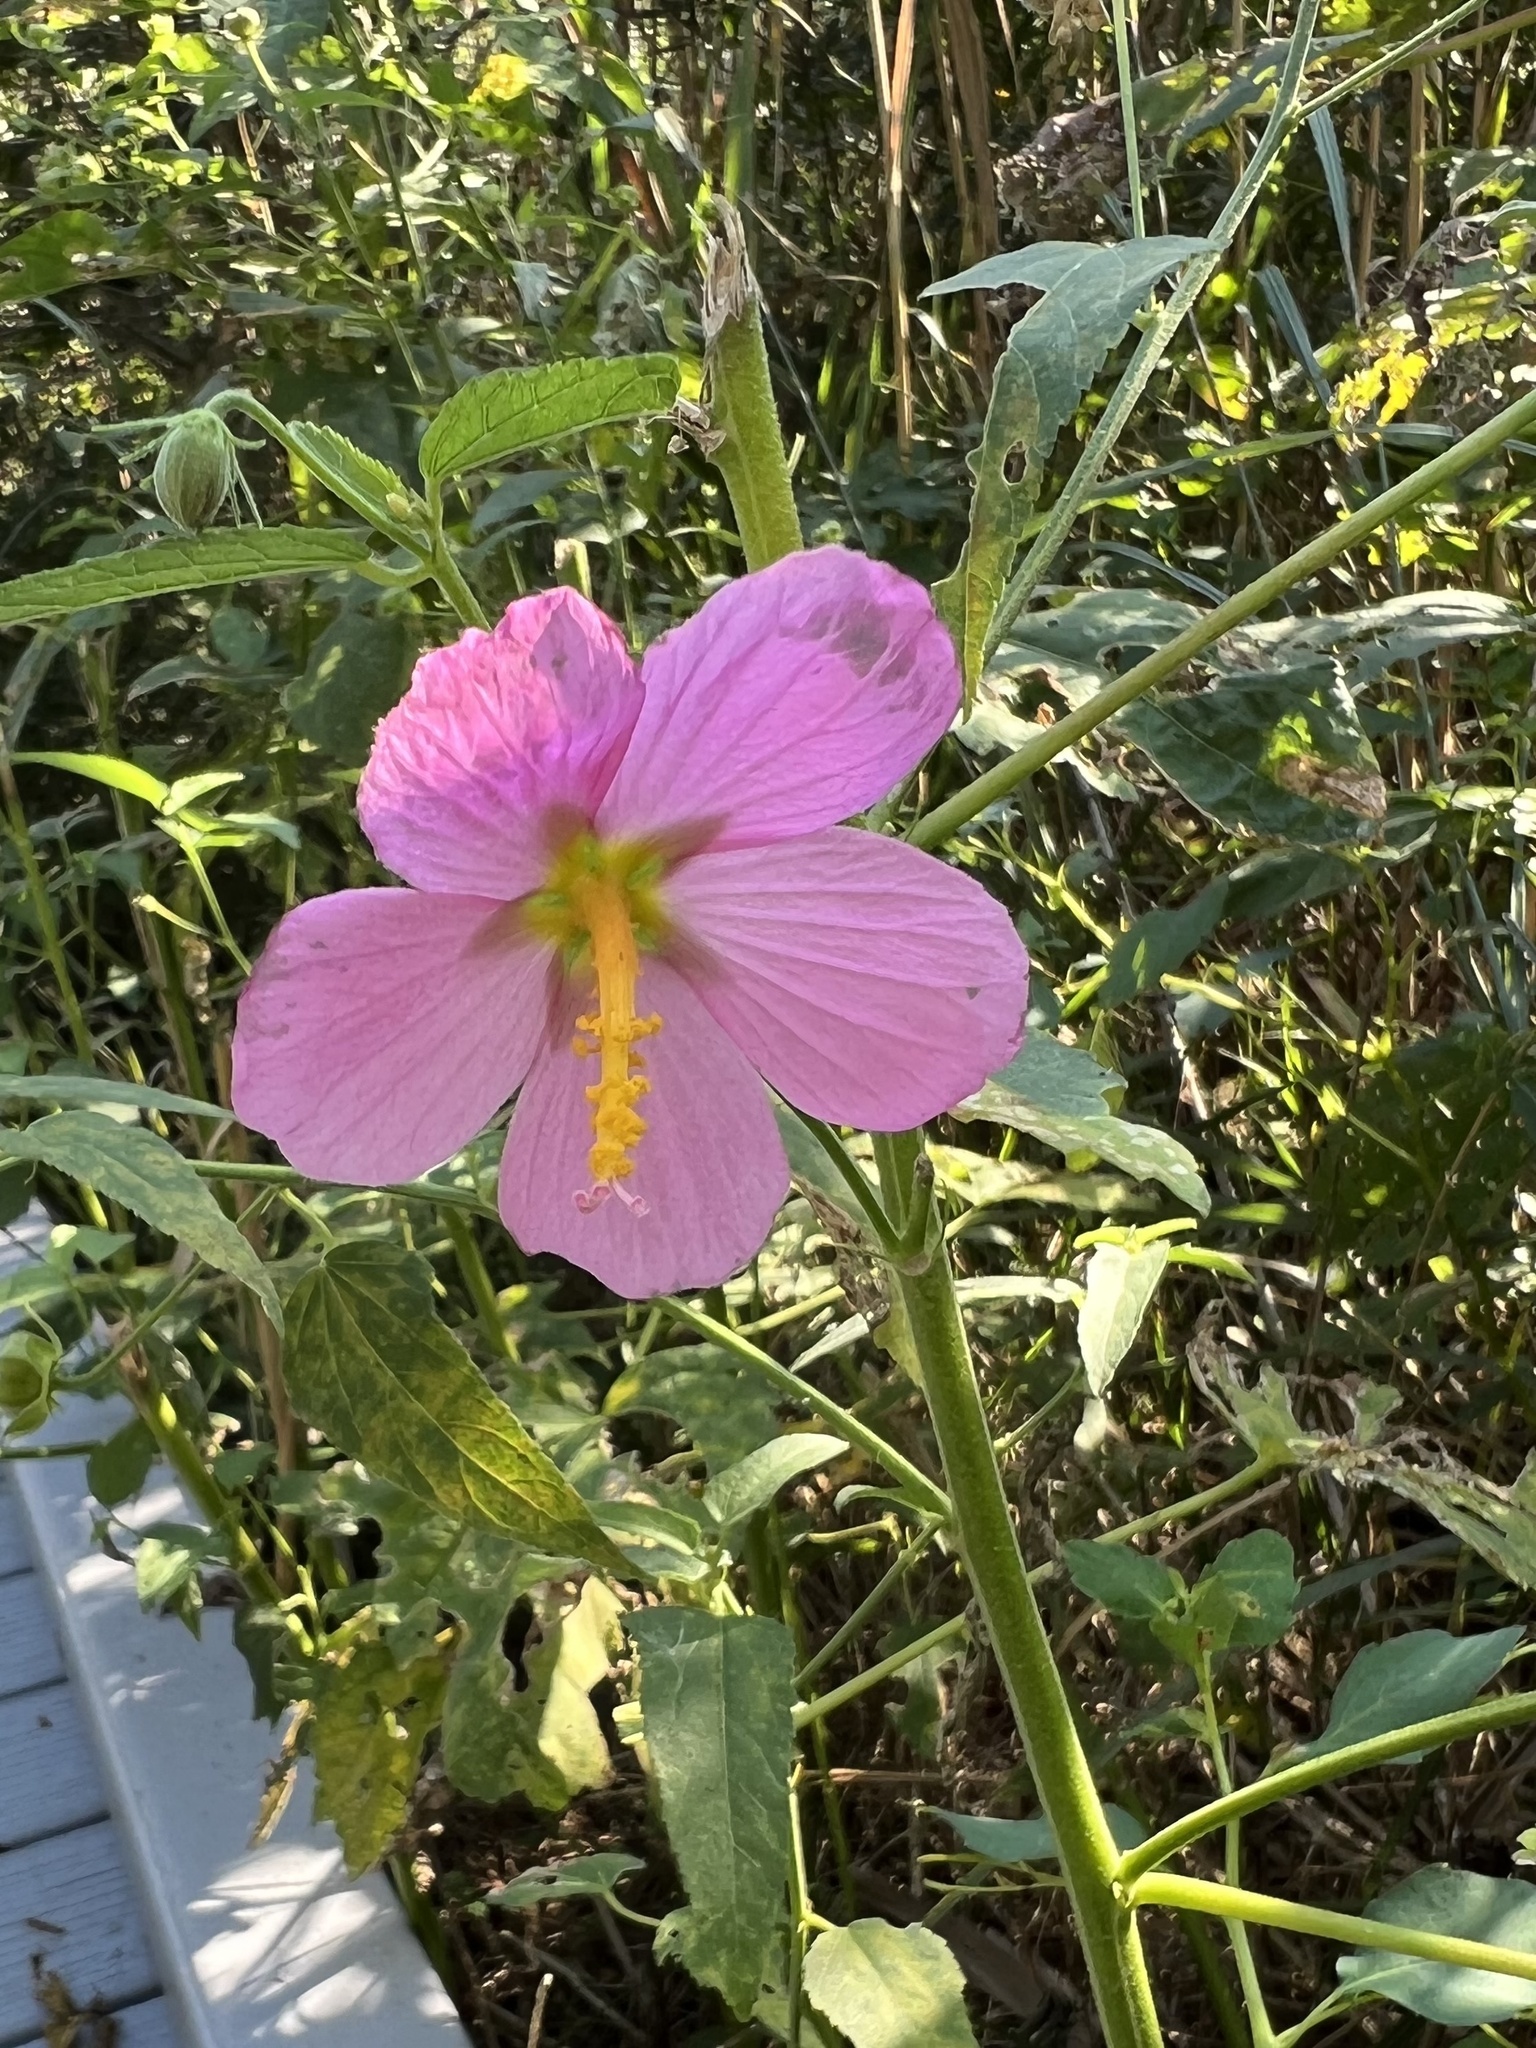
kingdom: Plantae
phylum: Tracheophyta
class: Magnoliopsida
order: Malvales
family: Malvaceae
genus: Kosteletzkya
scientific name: Kosteletzkya pentacarpos
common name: Virginia saltmarsh mallow
